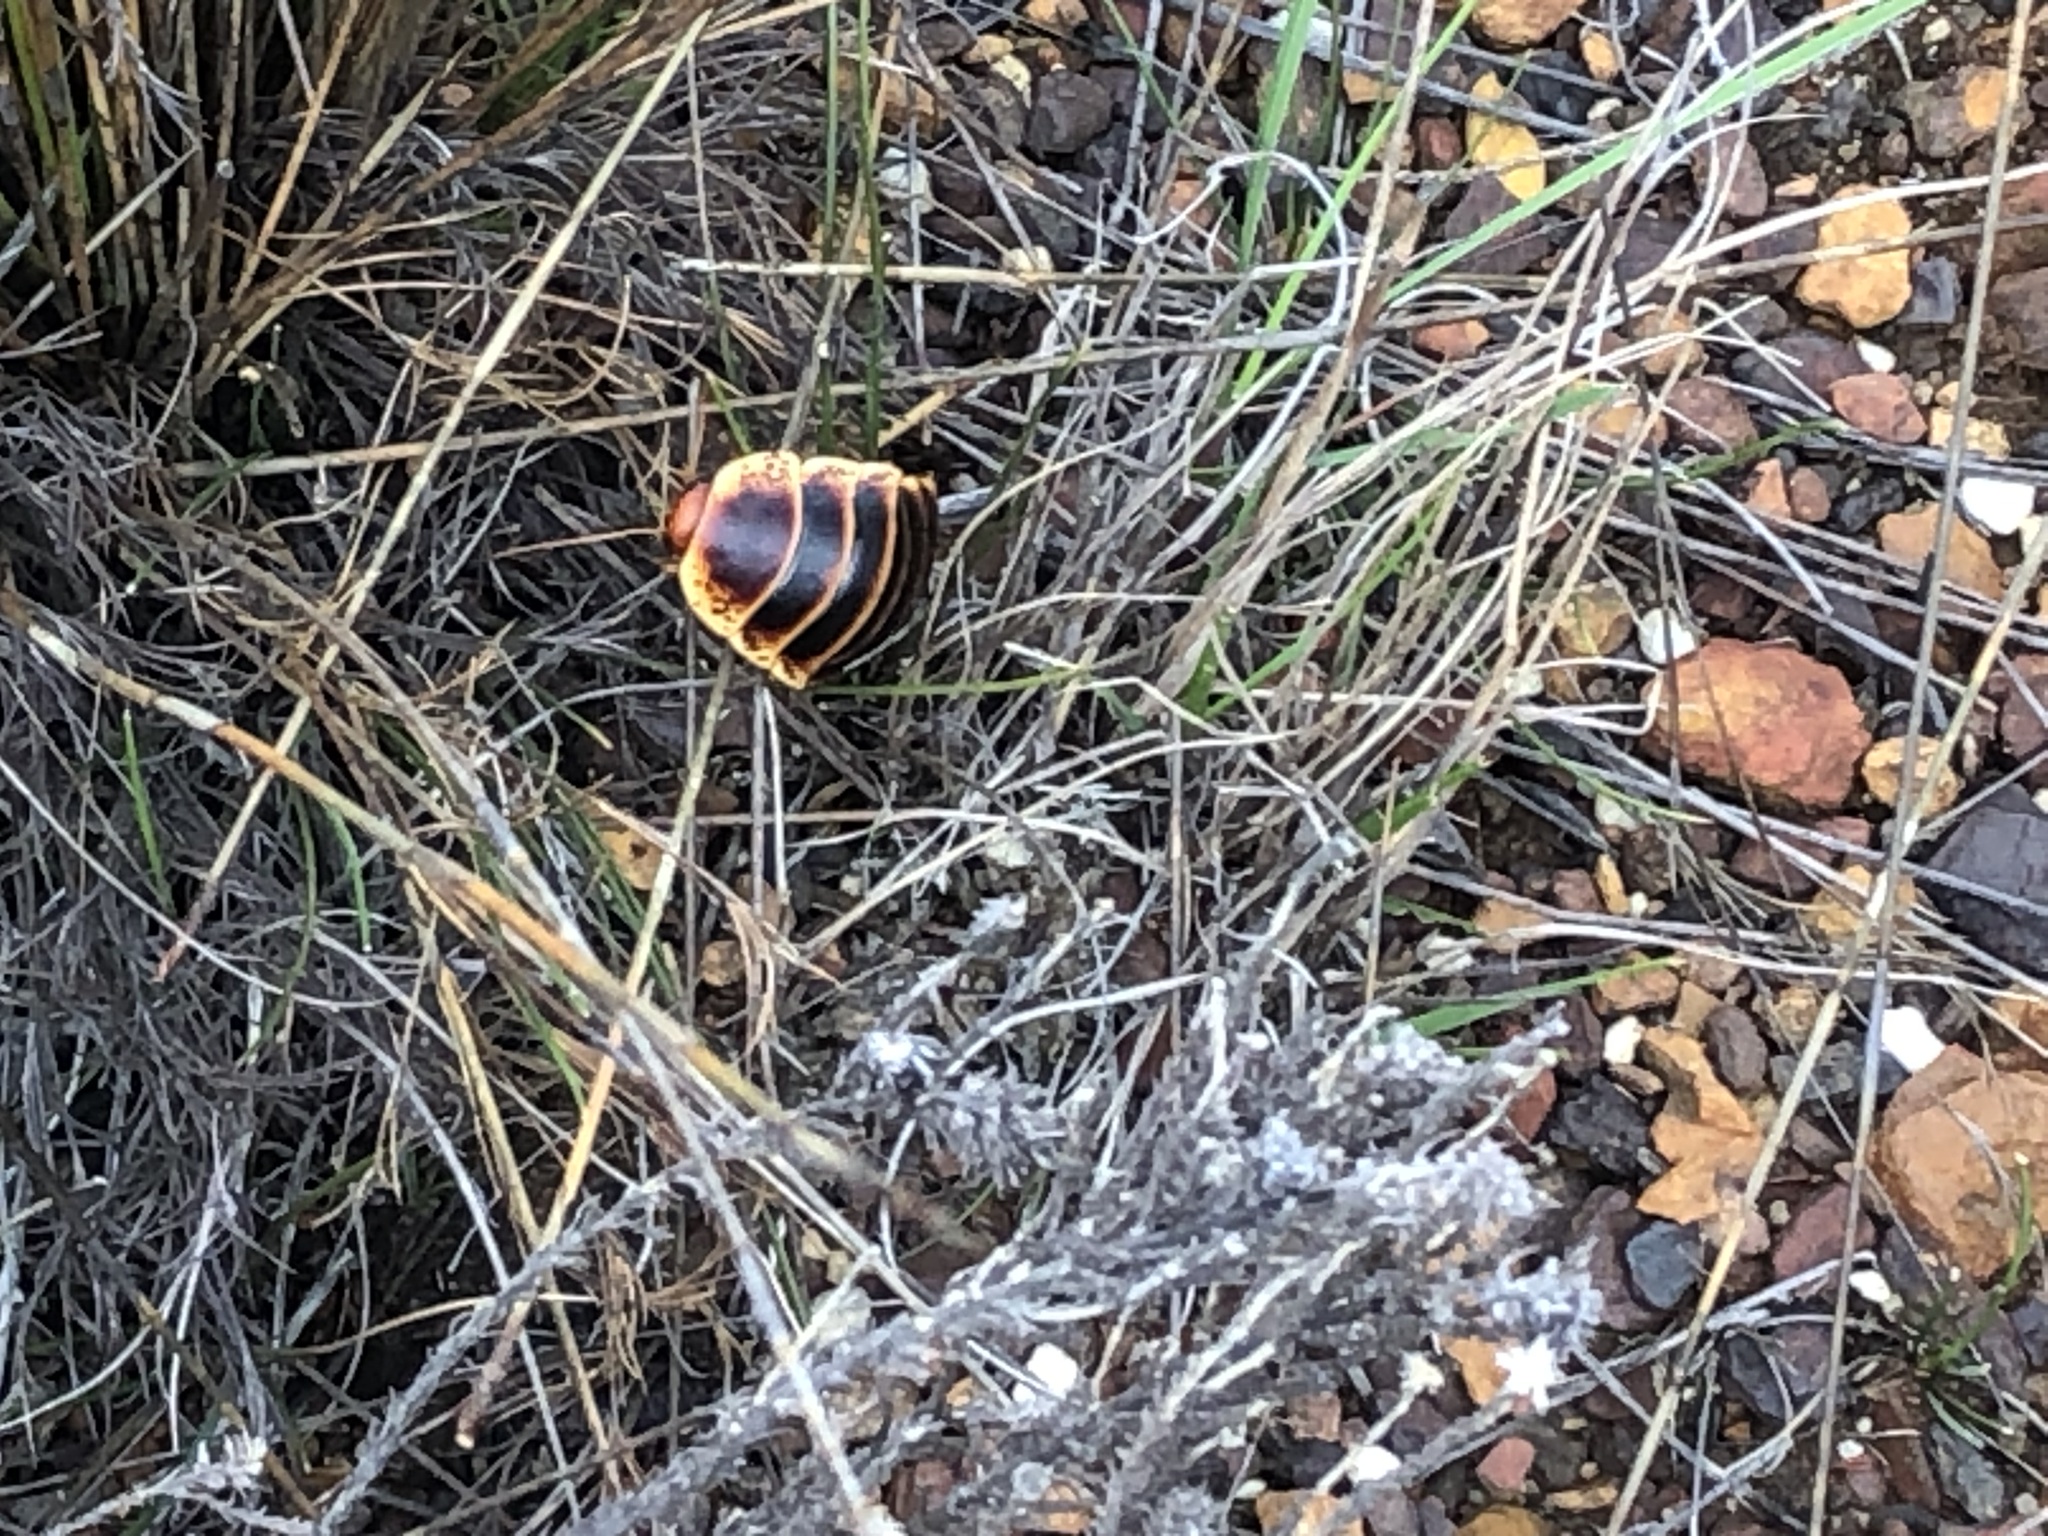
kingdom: Animalia
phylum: Arthropoda
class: Insecta
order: Blattodea
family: Blaberidae
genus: Aptera
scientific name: Aptera fusca
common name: Cape mountain cockroach
